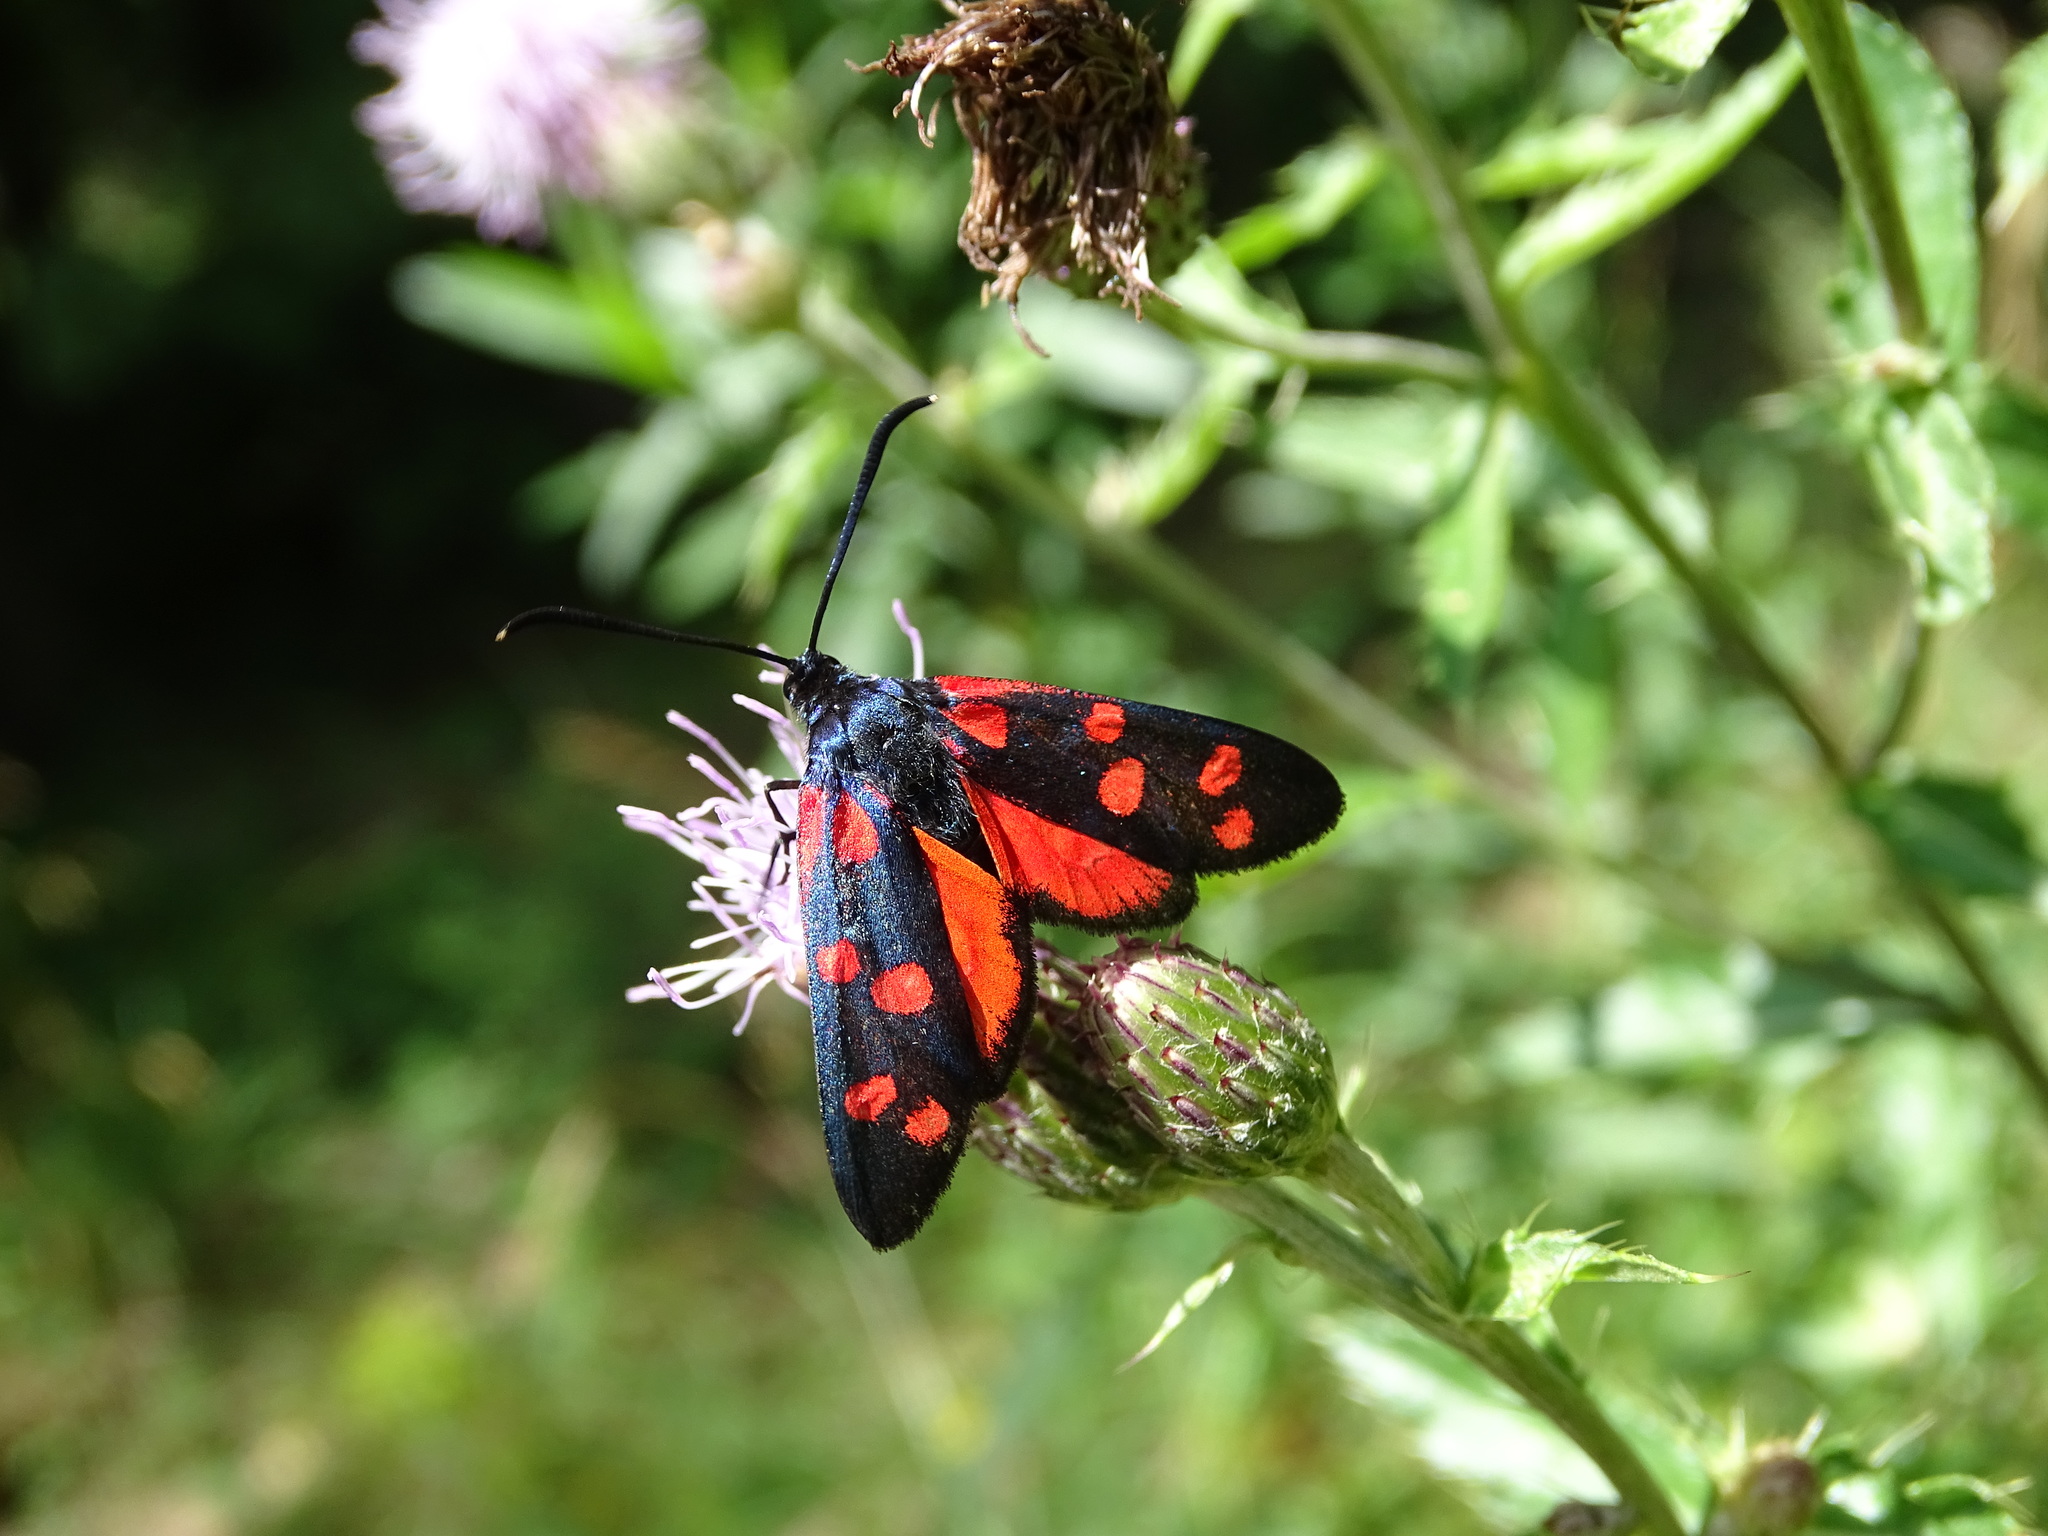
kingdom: Animalia
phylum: Arthropoda
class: Insecta
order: Lepidoptera
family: Zygaenidae
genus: Zygaena
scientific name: Zygaena ephialtes
